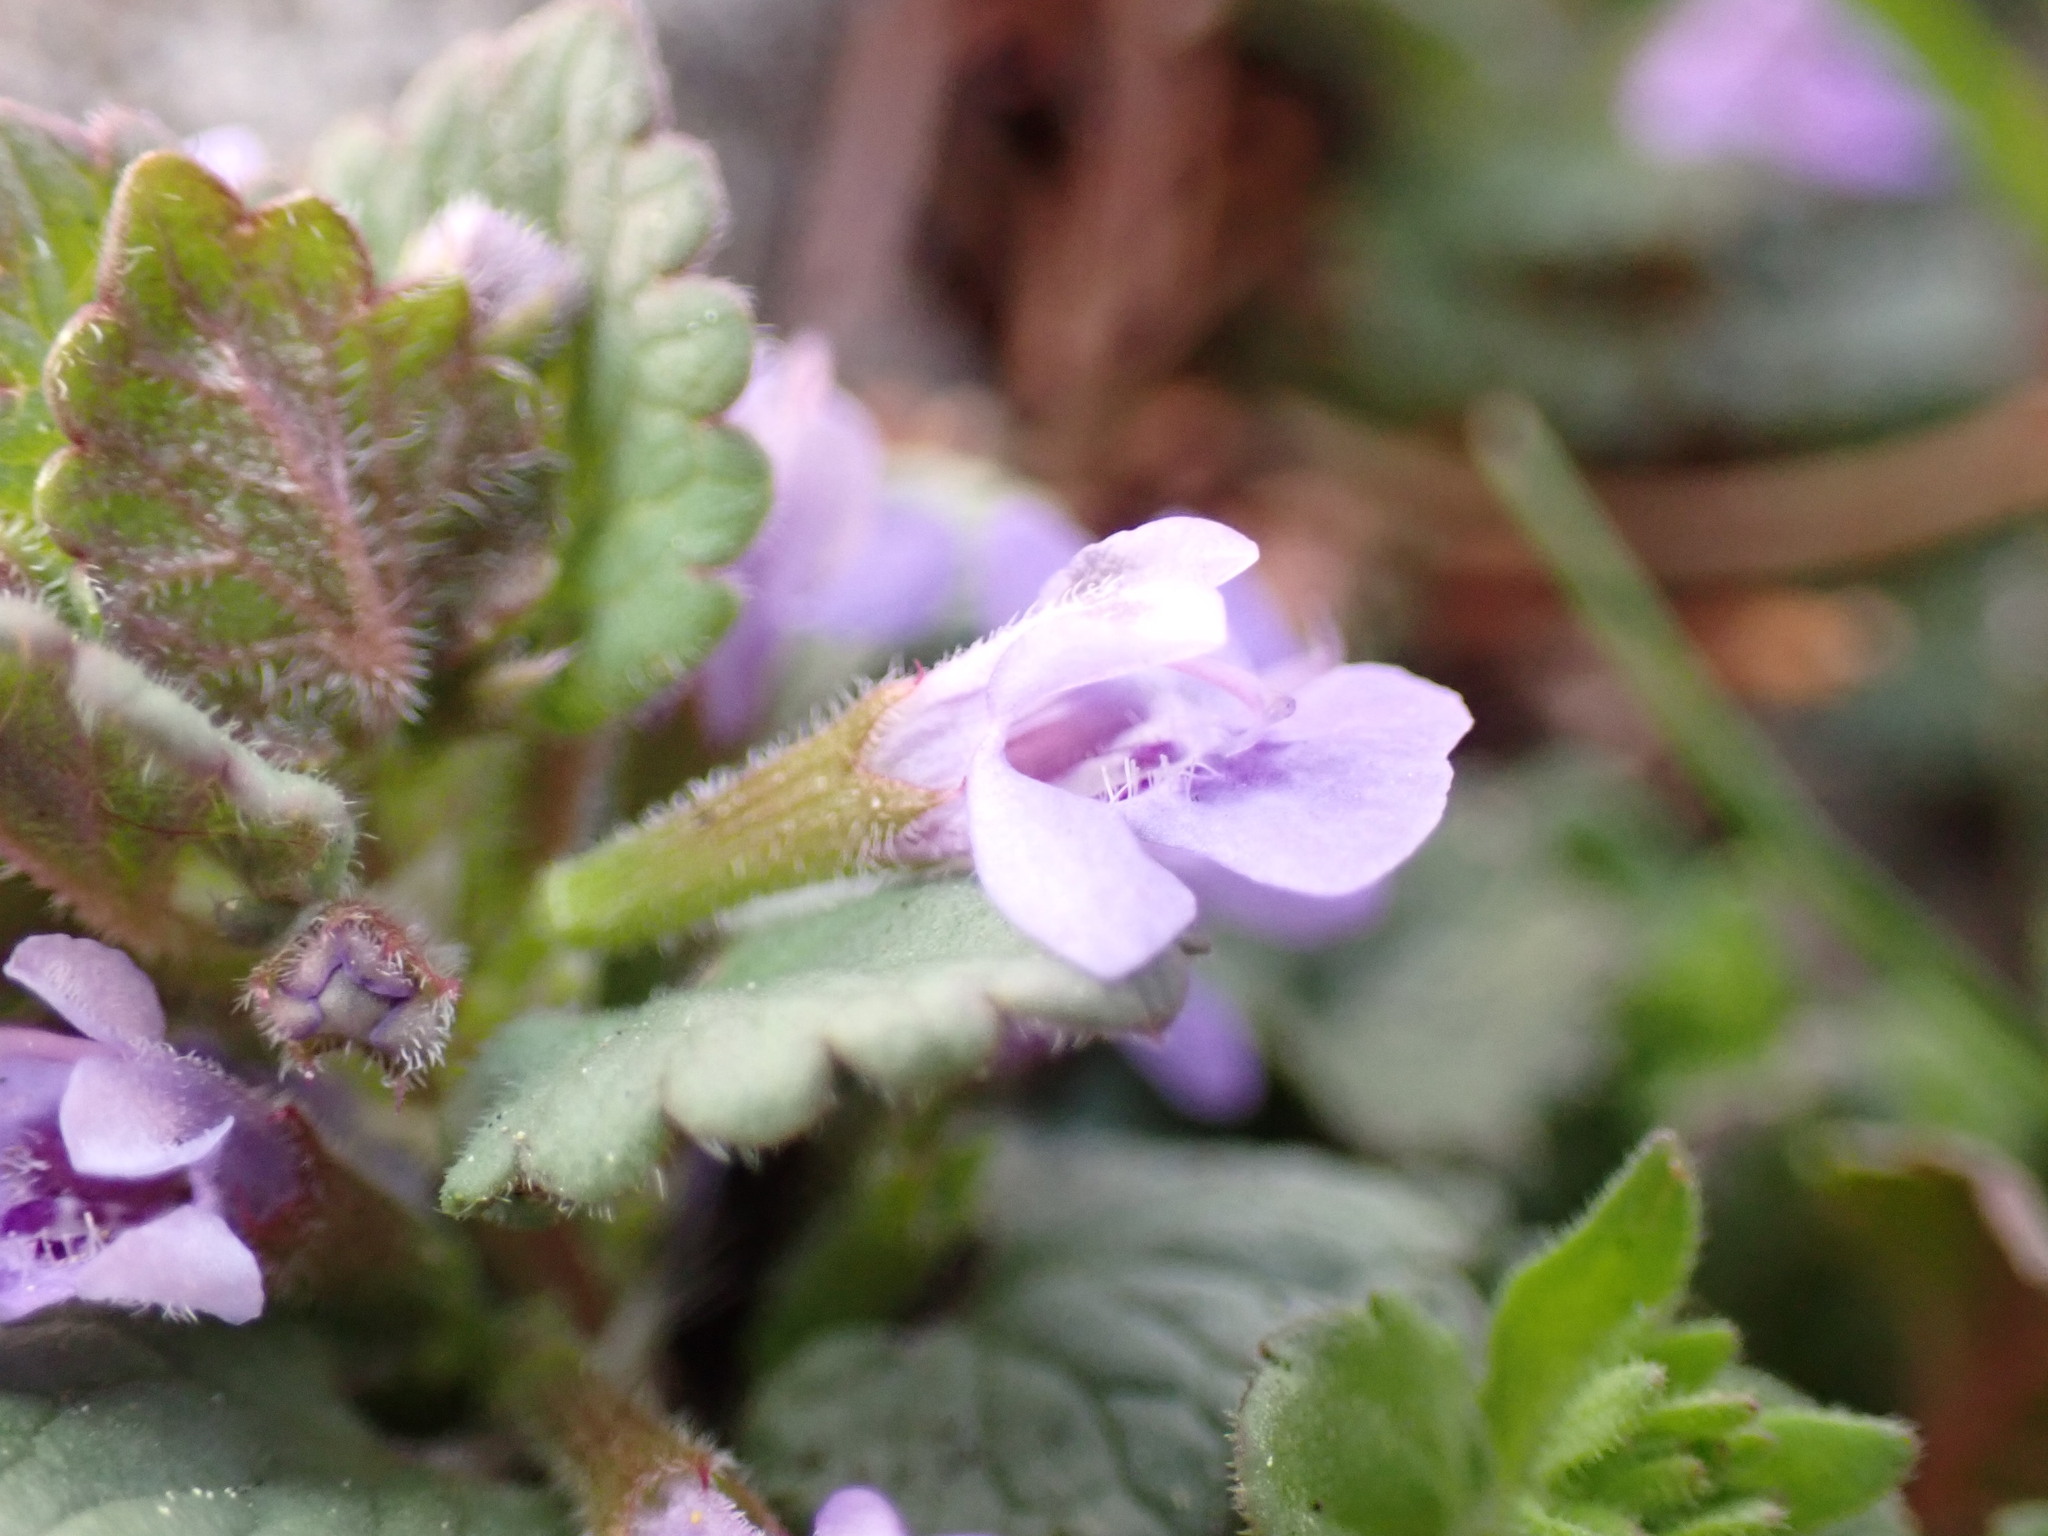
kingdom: Plantae
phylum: Tracheophyta
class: Magnoliopsida
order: Lamiales
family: Lamiaceae
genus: Glechoma
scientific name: Glechoma hederacea
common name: Ground ivy
